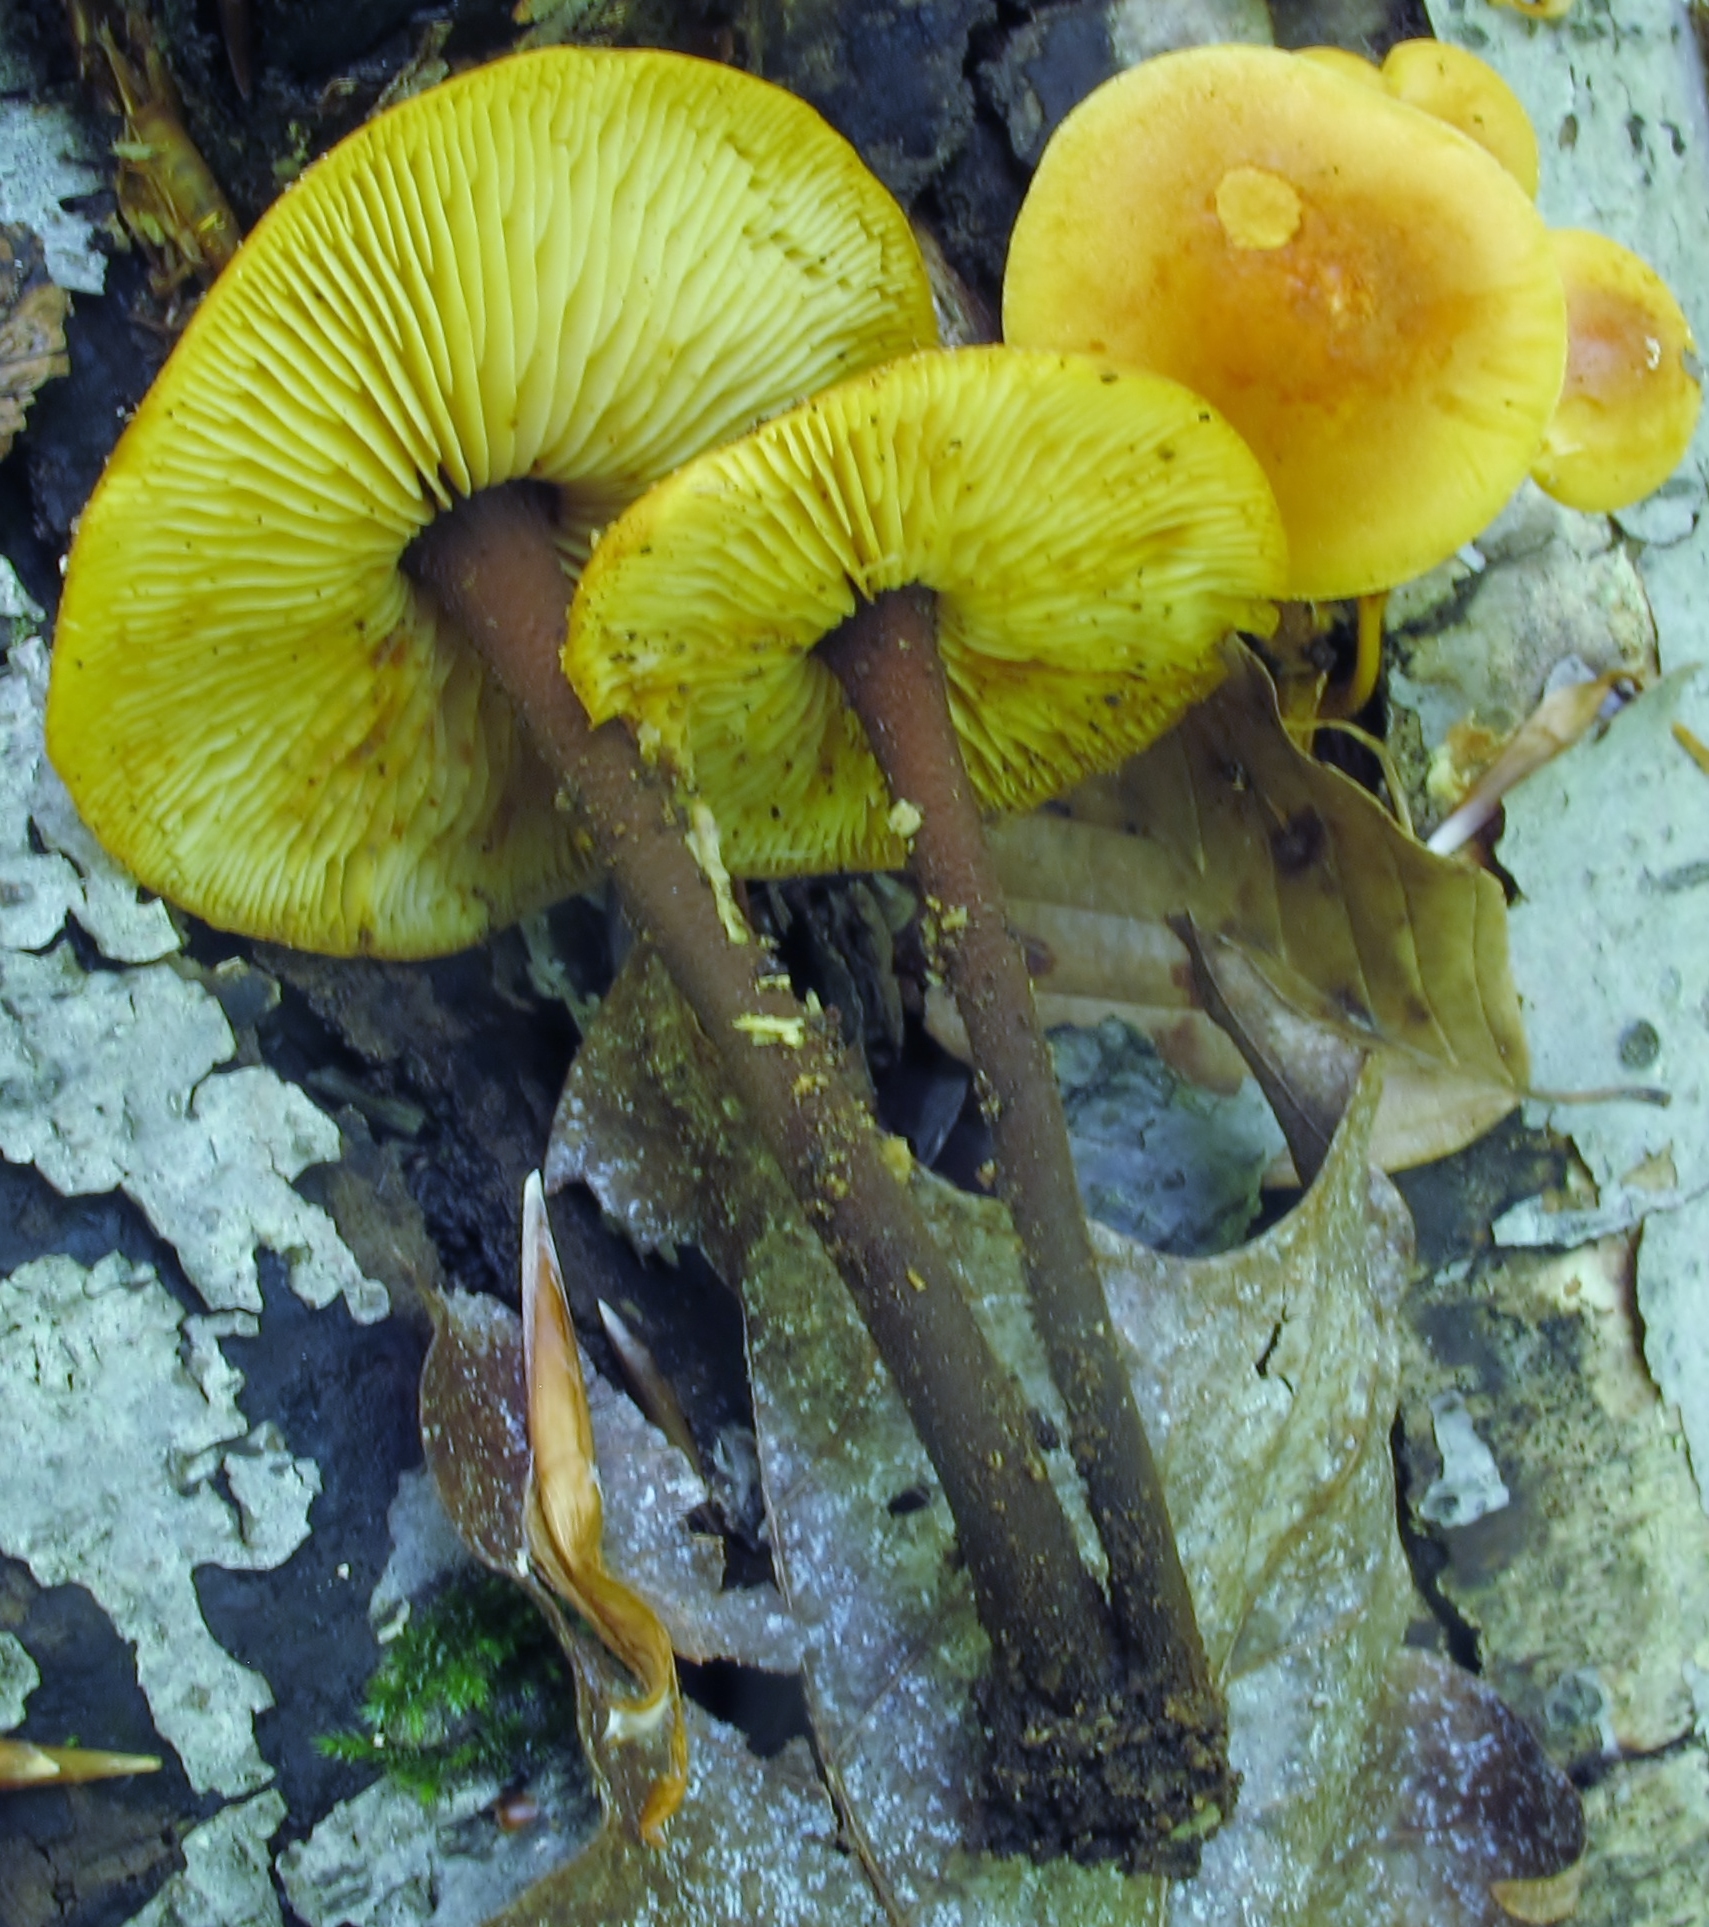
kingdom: Fungi
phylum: Basidiomycota
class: Agaricomycetes
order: Agaricales
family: Mycenaceae
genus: Xeromphalina
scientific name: Xeromphalina tenuipes
